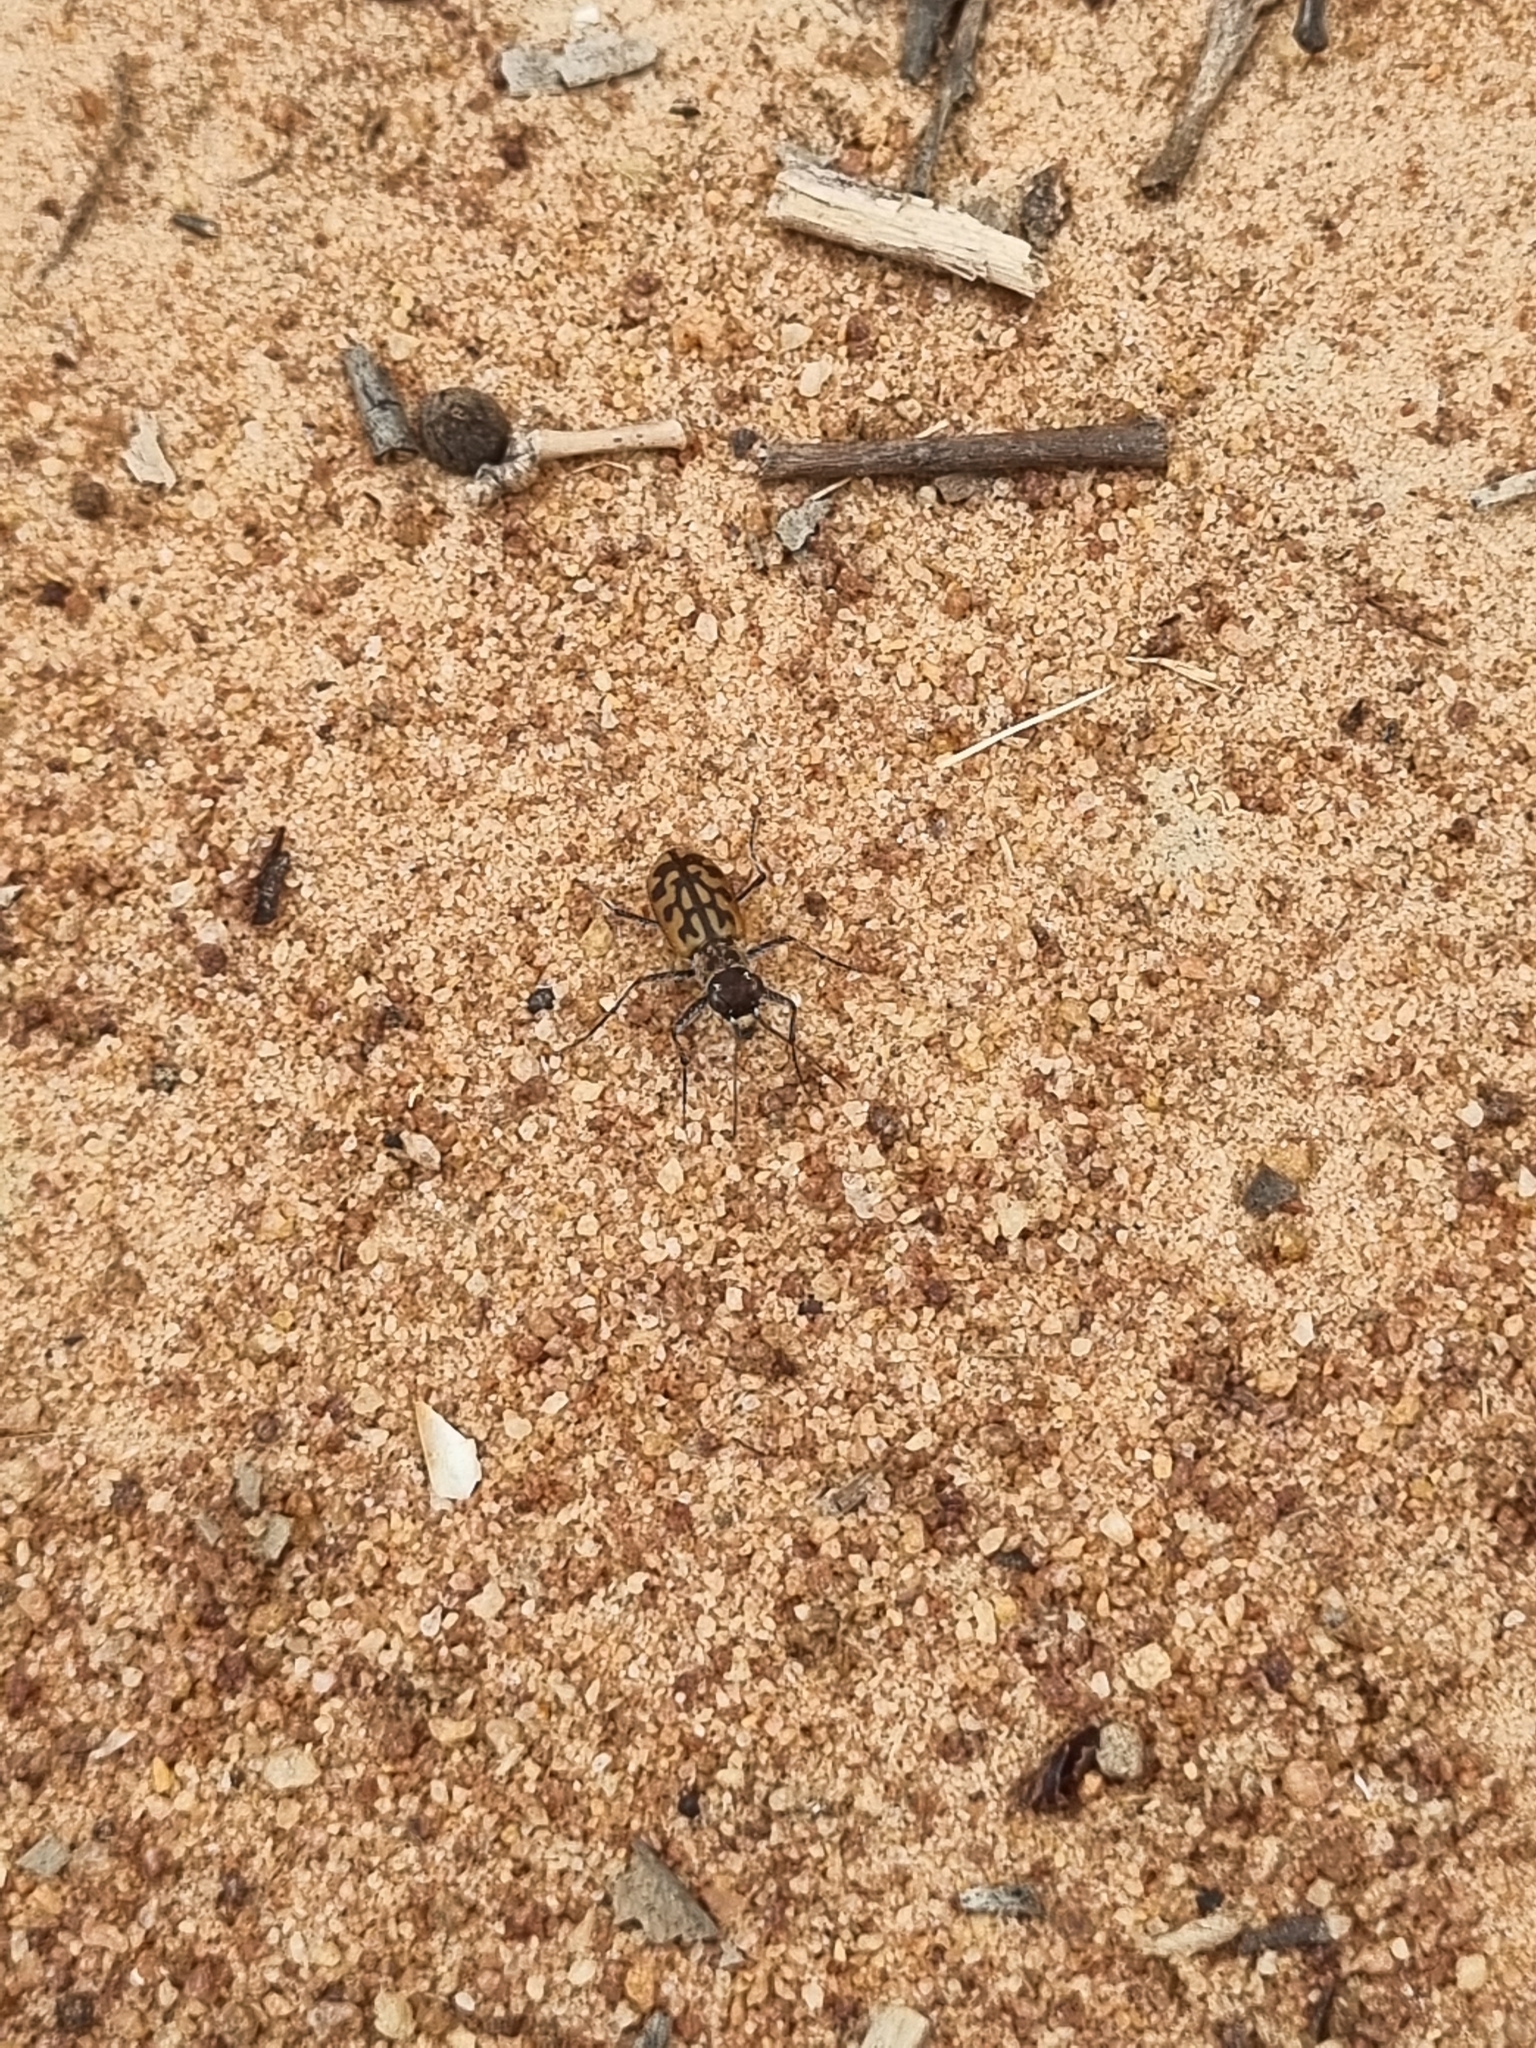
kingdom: Animalia
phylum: Arthropoda
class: Insecta
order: Coleoptera
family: Carabidae
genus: Lophyra
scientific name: Lophyra catena
